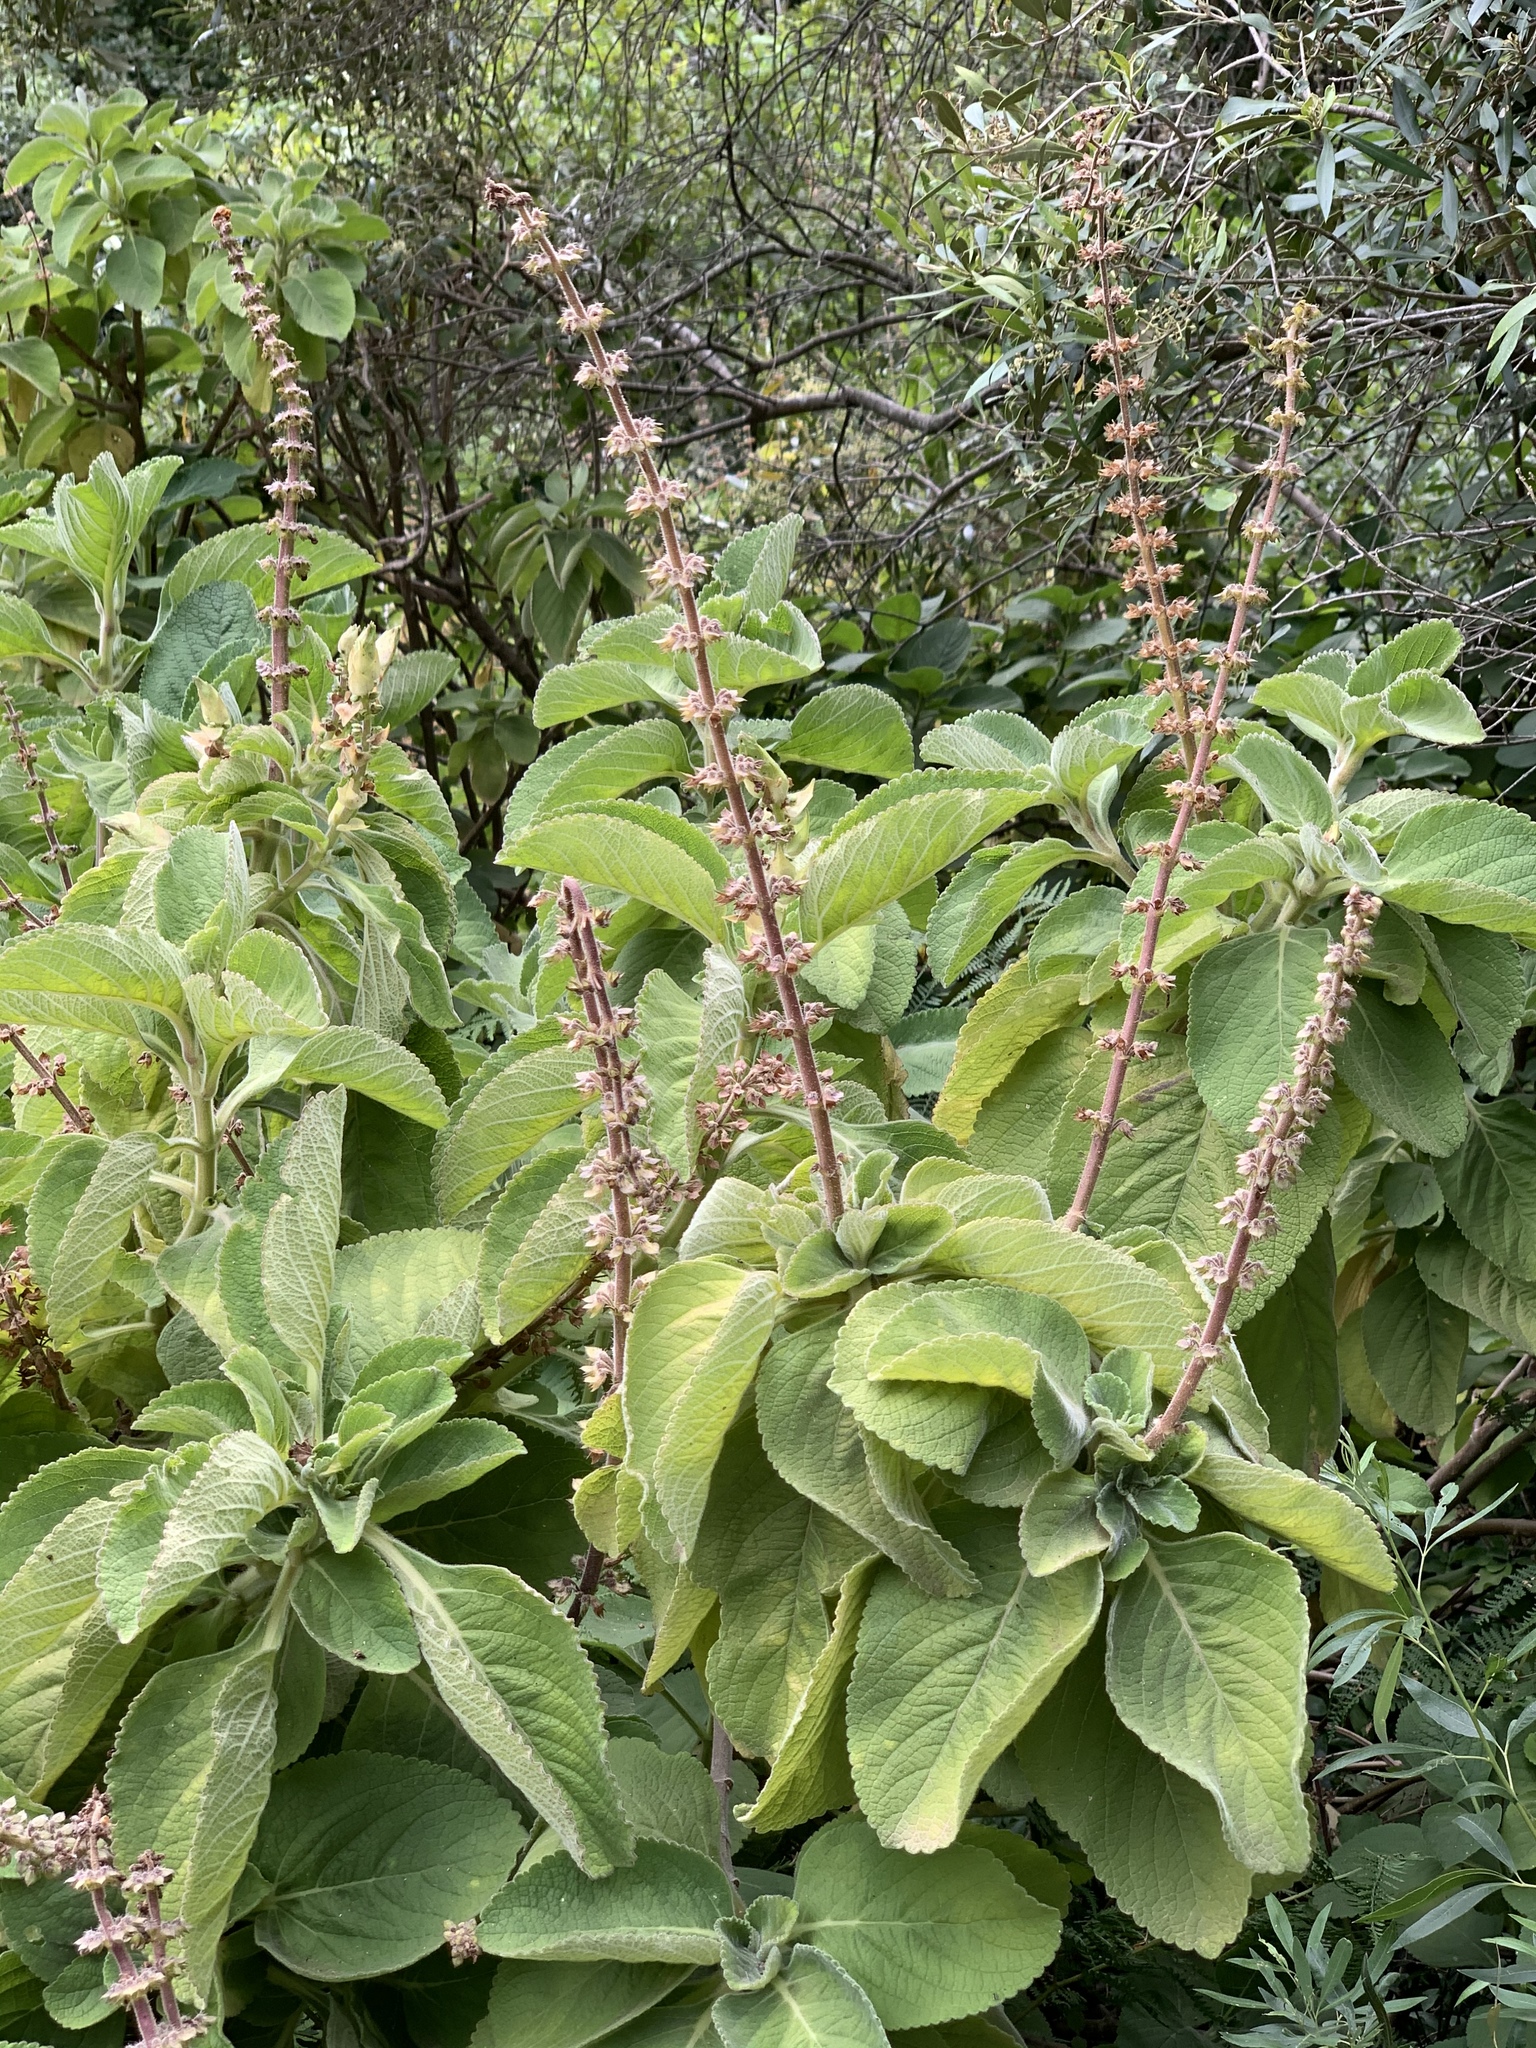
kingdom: Plantae
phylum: Tracheophyta
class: Magnoliopsida
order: Lamiales
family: Lamiaceae
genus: Coleus
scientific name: Coleus barbatus
